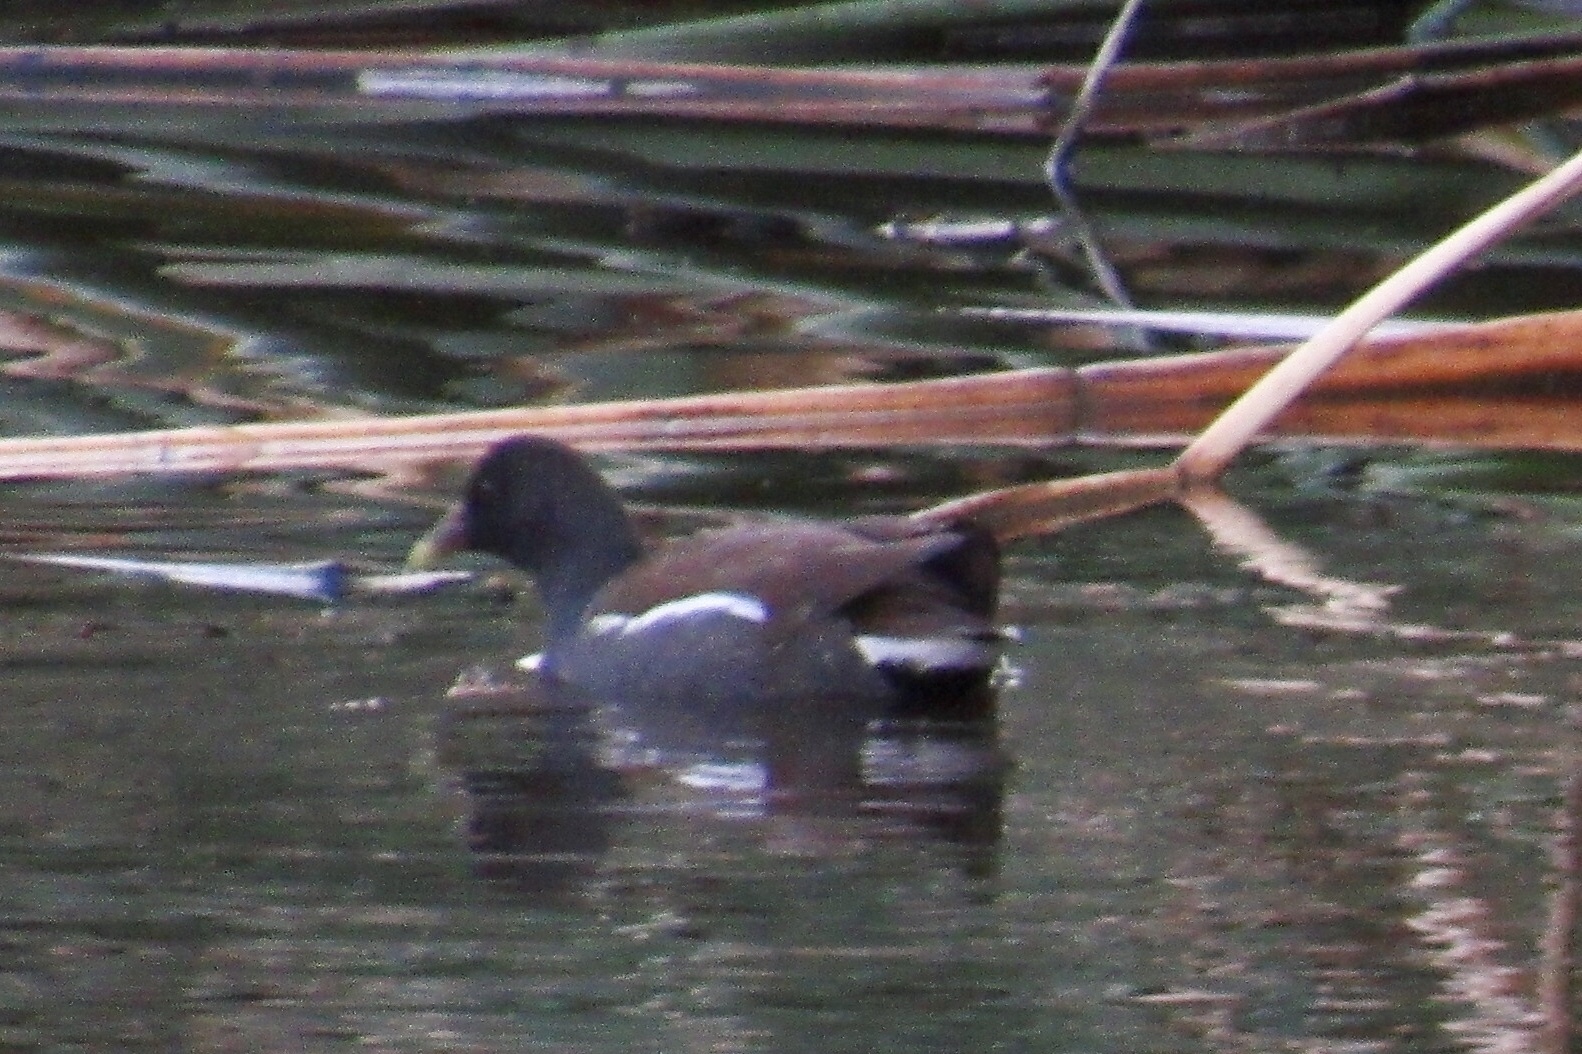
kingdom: Animalia
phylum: Chordata
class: Aves
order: Gruiformes
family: Rallidae
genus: Gallinula
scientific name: Gallinula chloropus
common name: Common moorhen
